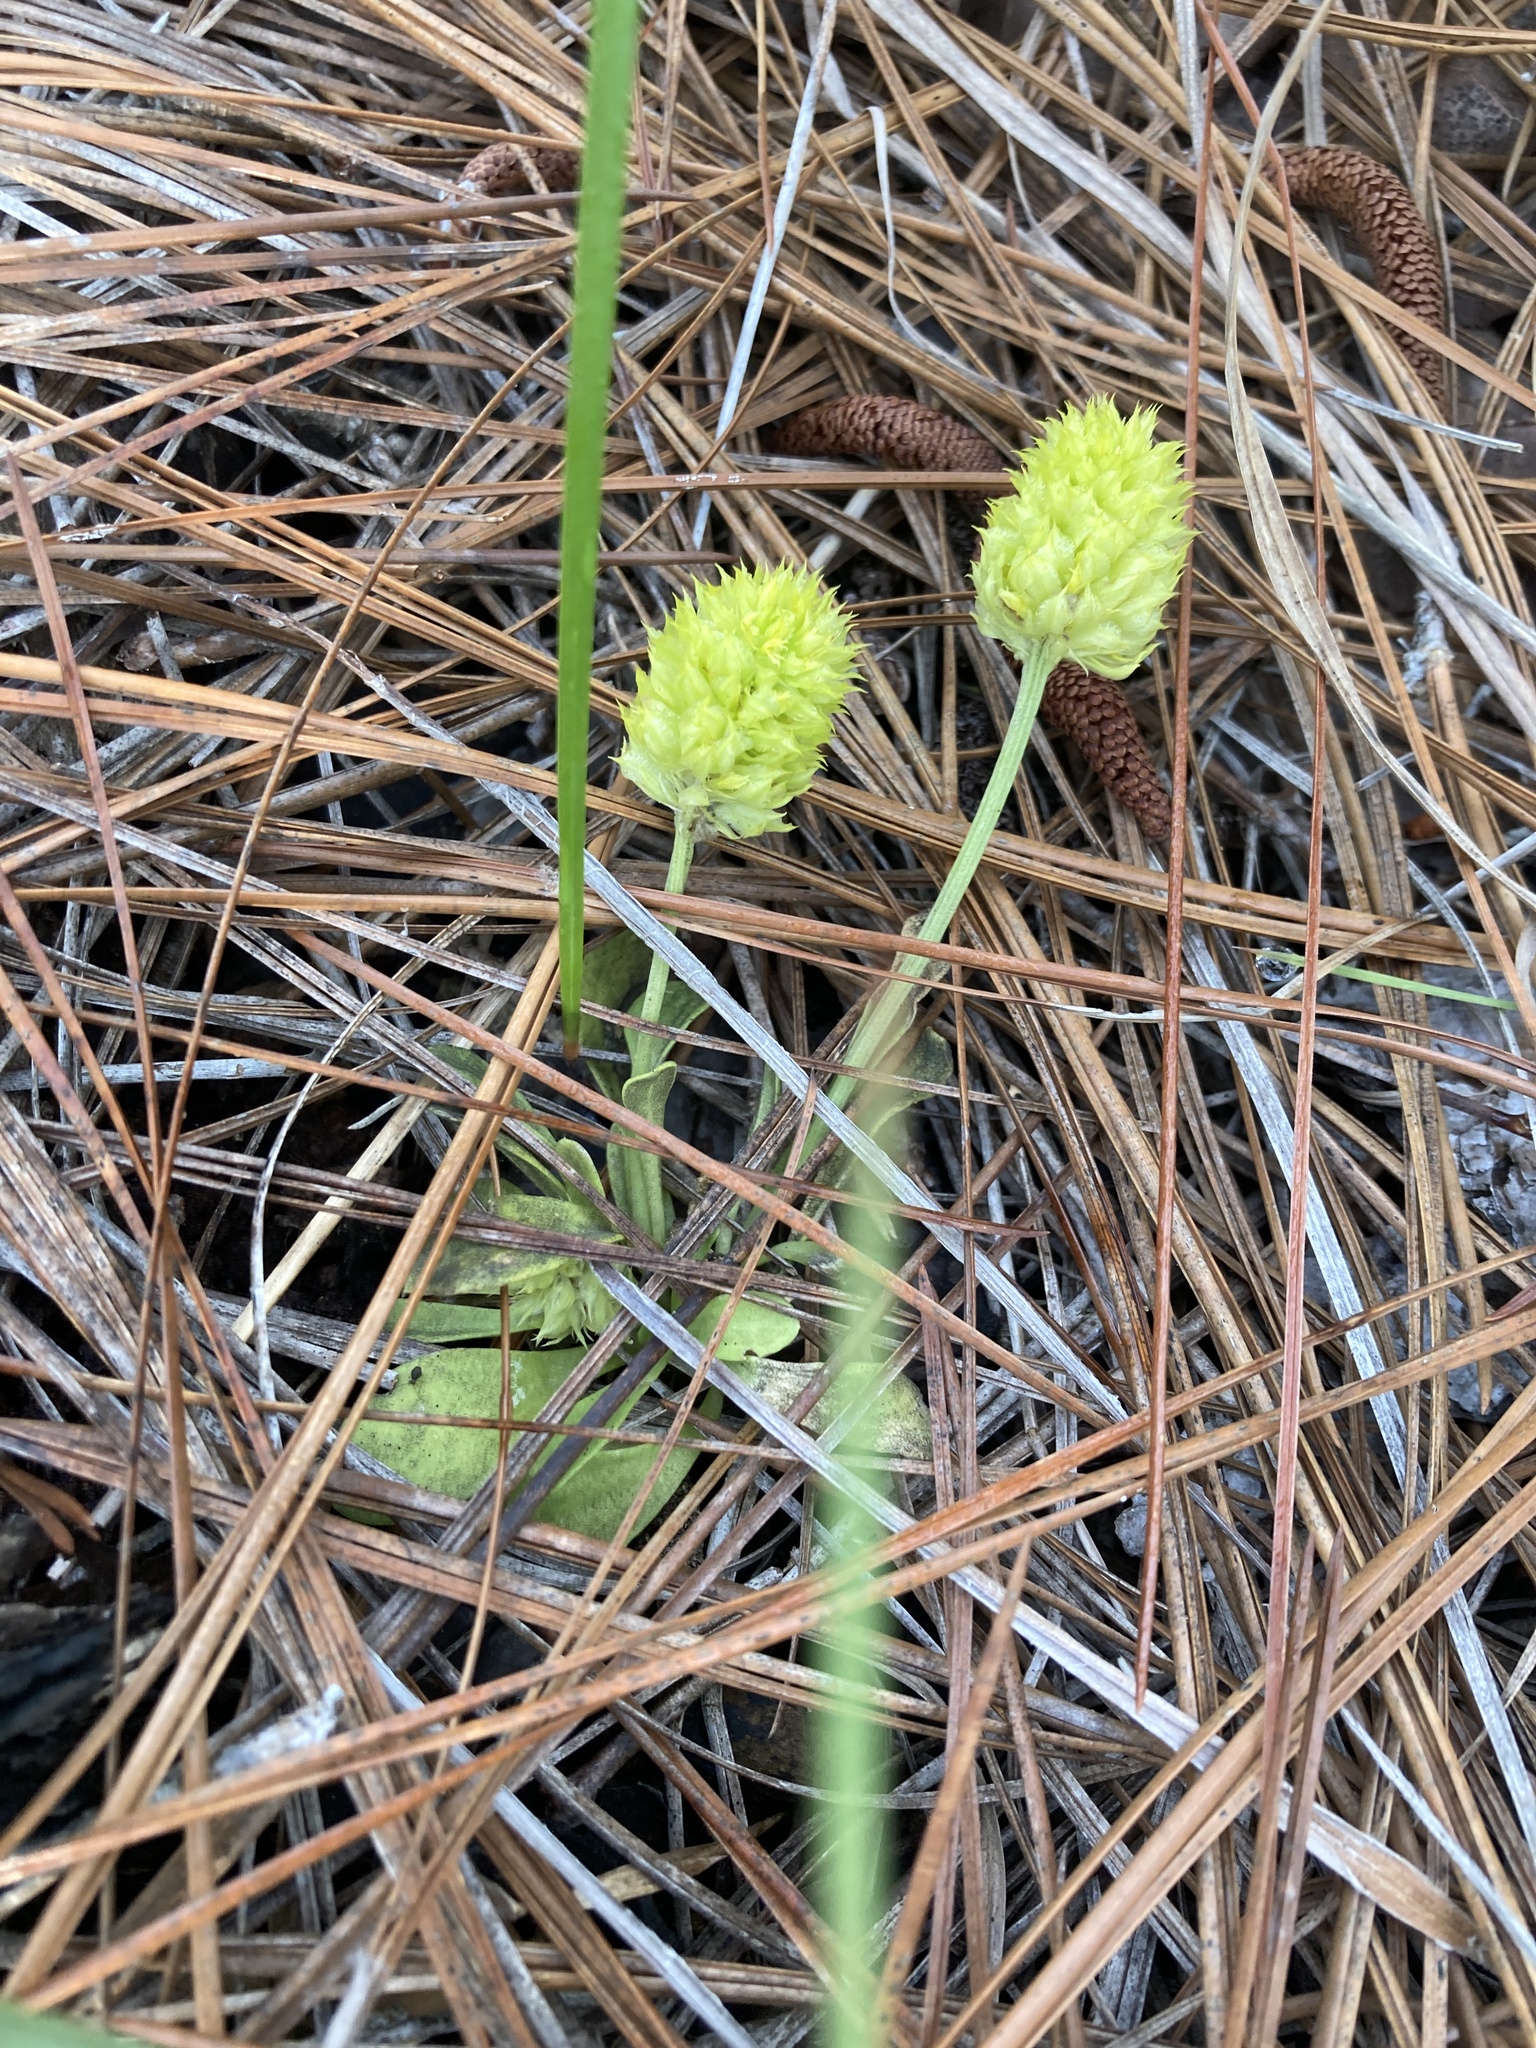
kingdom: Plantae
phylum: Tracheophyta
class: Magnoliopsida
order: Fabales
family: Polygalaceae
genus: Polygala
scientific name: Polygala nana
